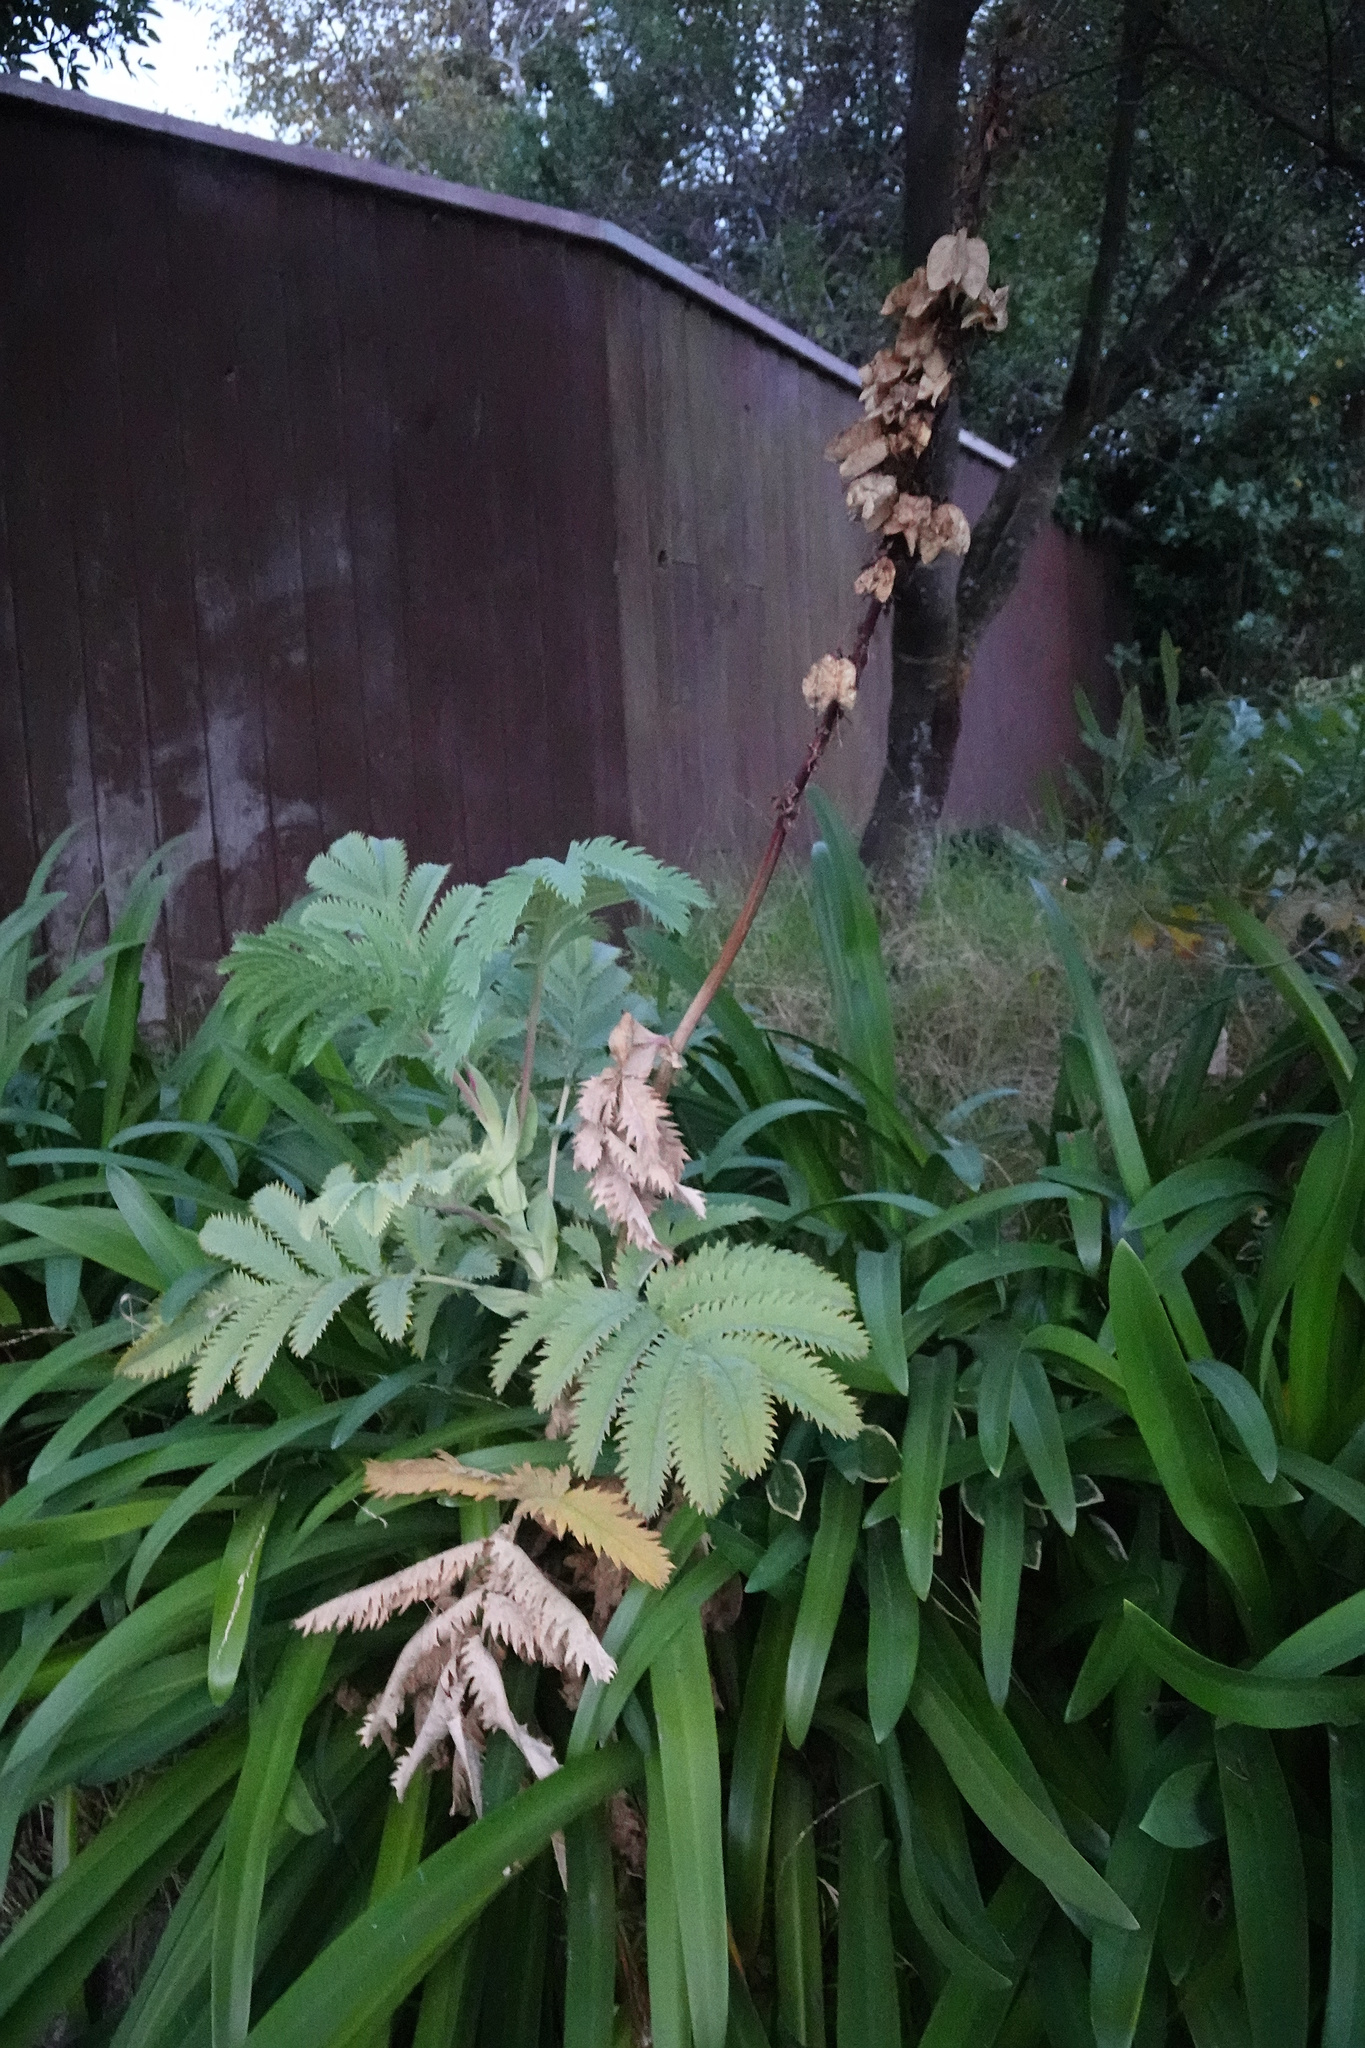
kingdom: Plantae
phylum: Tracheophyta
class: Magnoliopsida
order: Geraniales
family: Melianthaceae
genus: Melianthus
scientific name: Melianthus major
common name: Honey-flower
